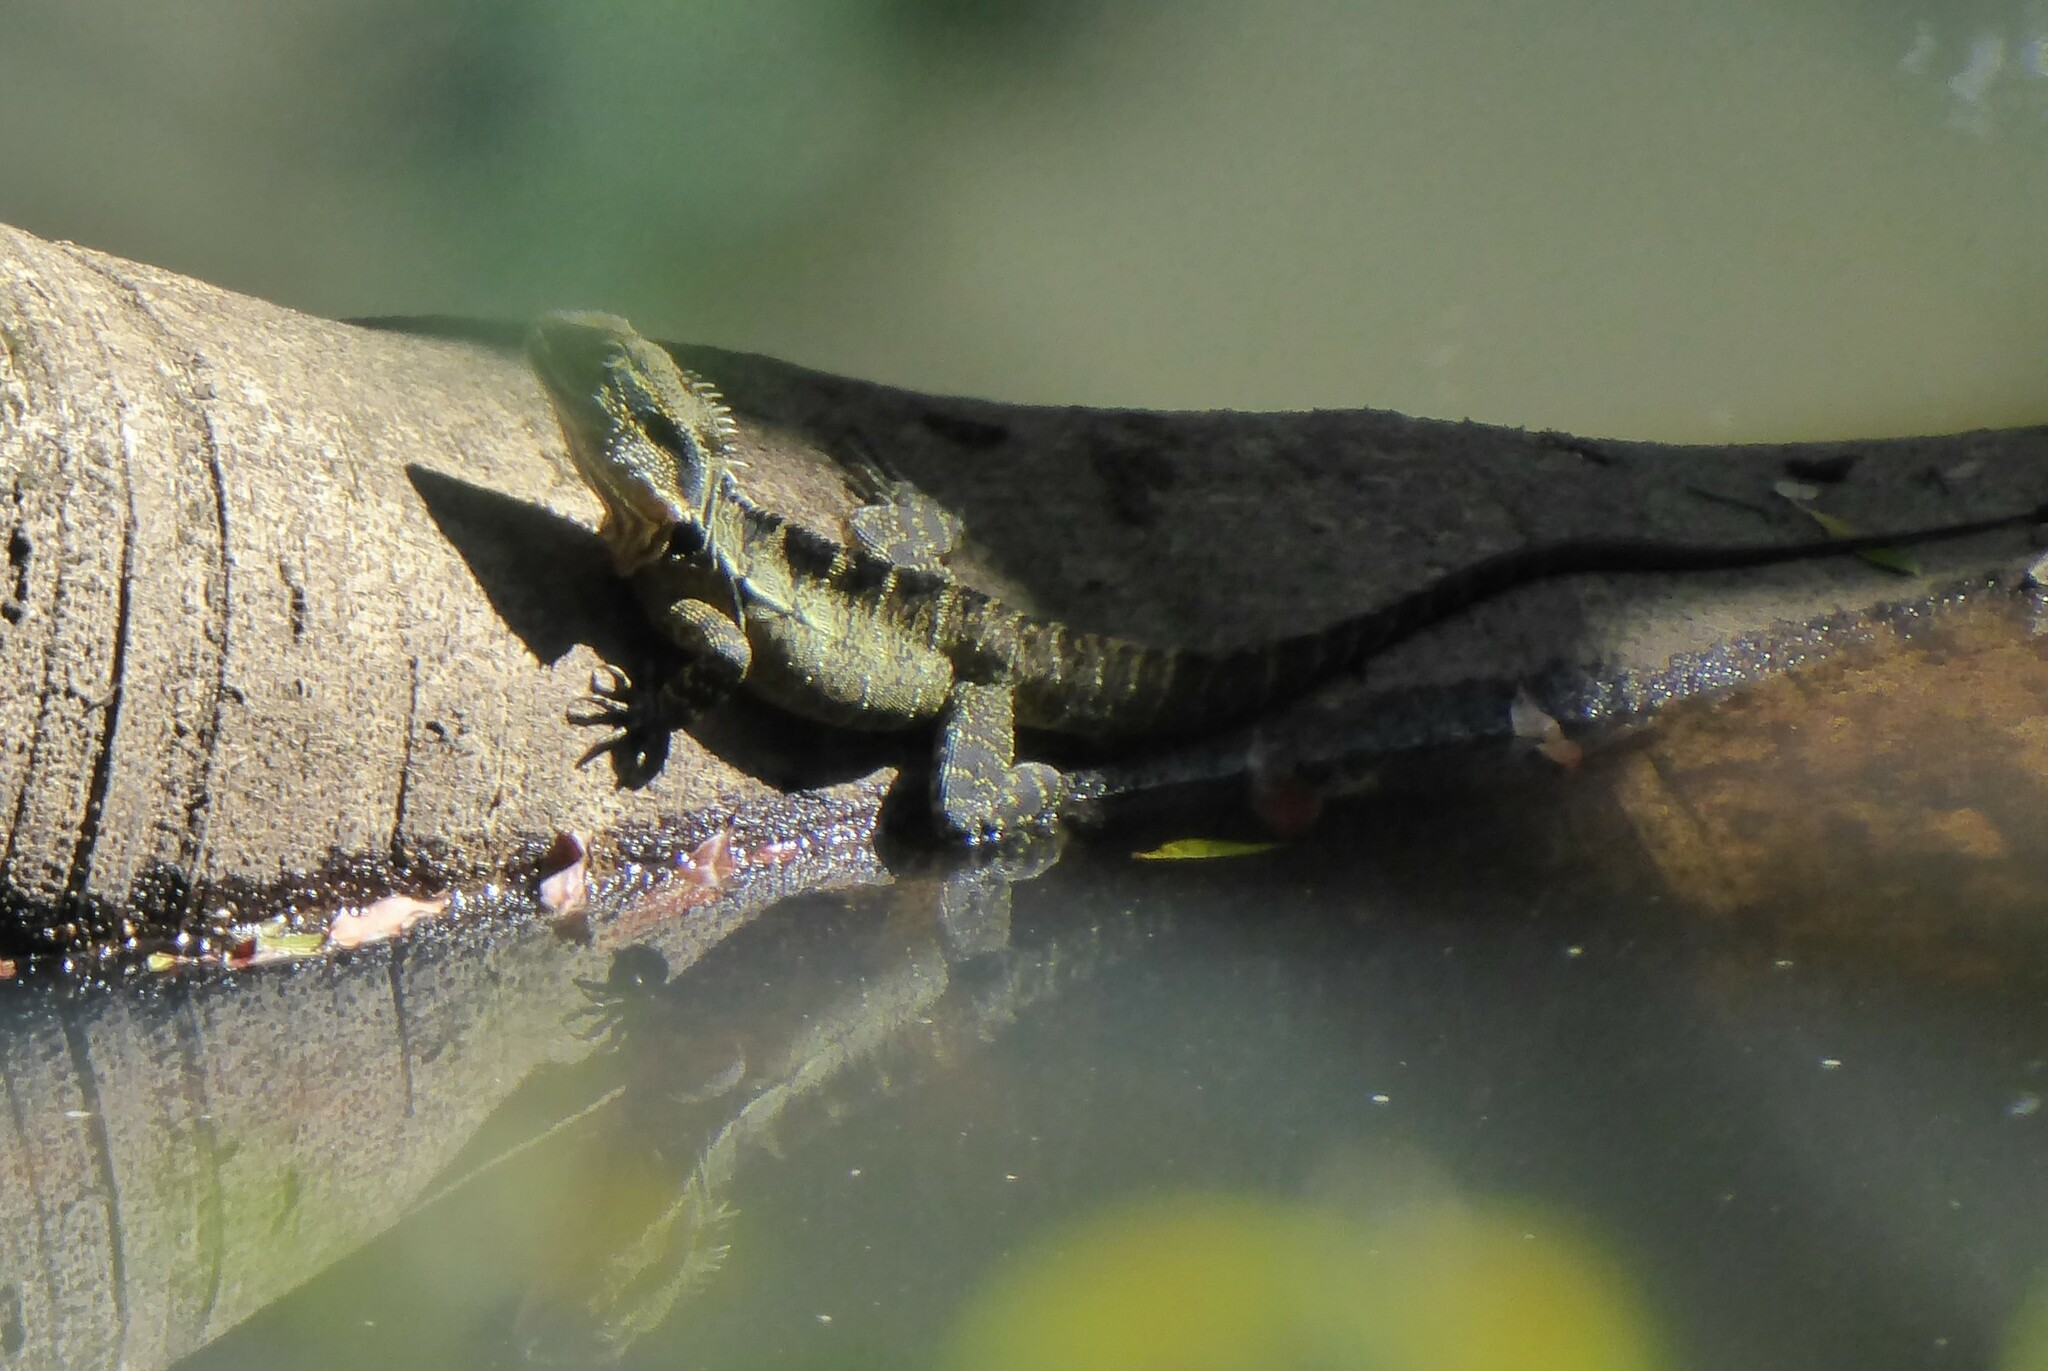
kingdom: Animalia
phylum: Chordata
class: Squamata
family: Agamidae
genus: Intellagama
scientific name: Intellagama lesueurii
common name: Eastern water dragon
